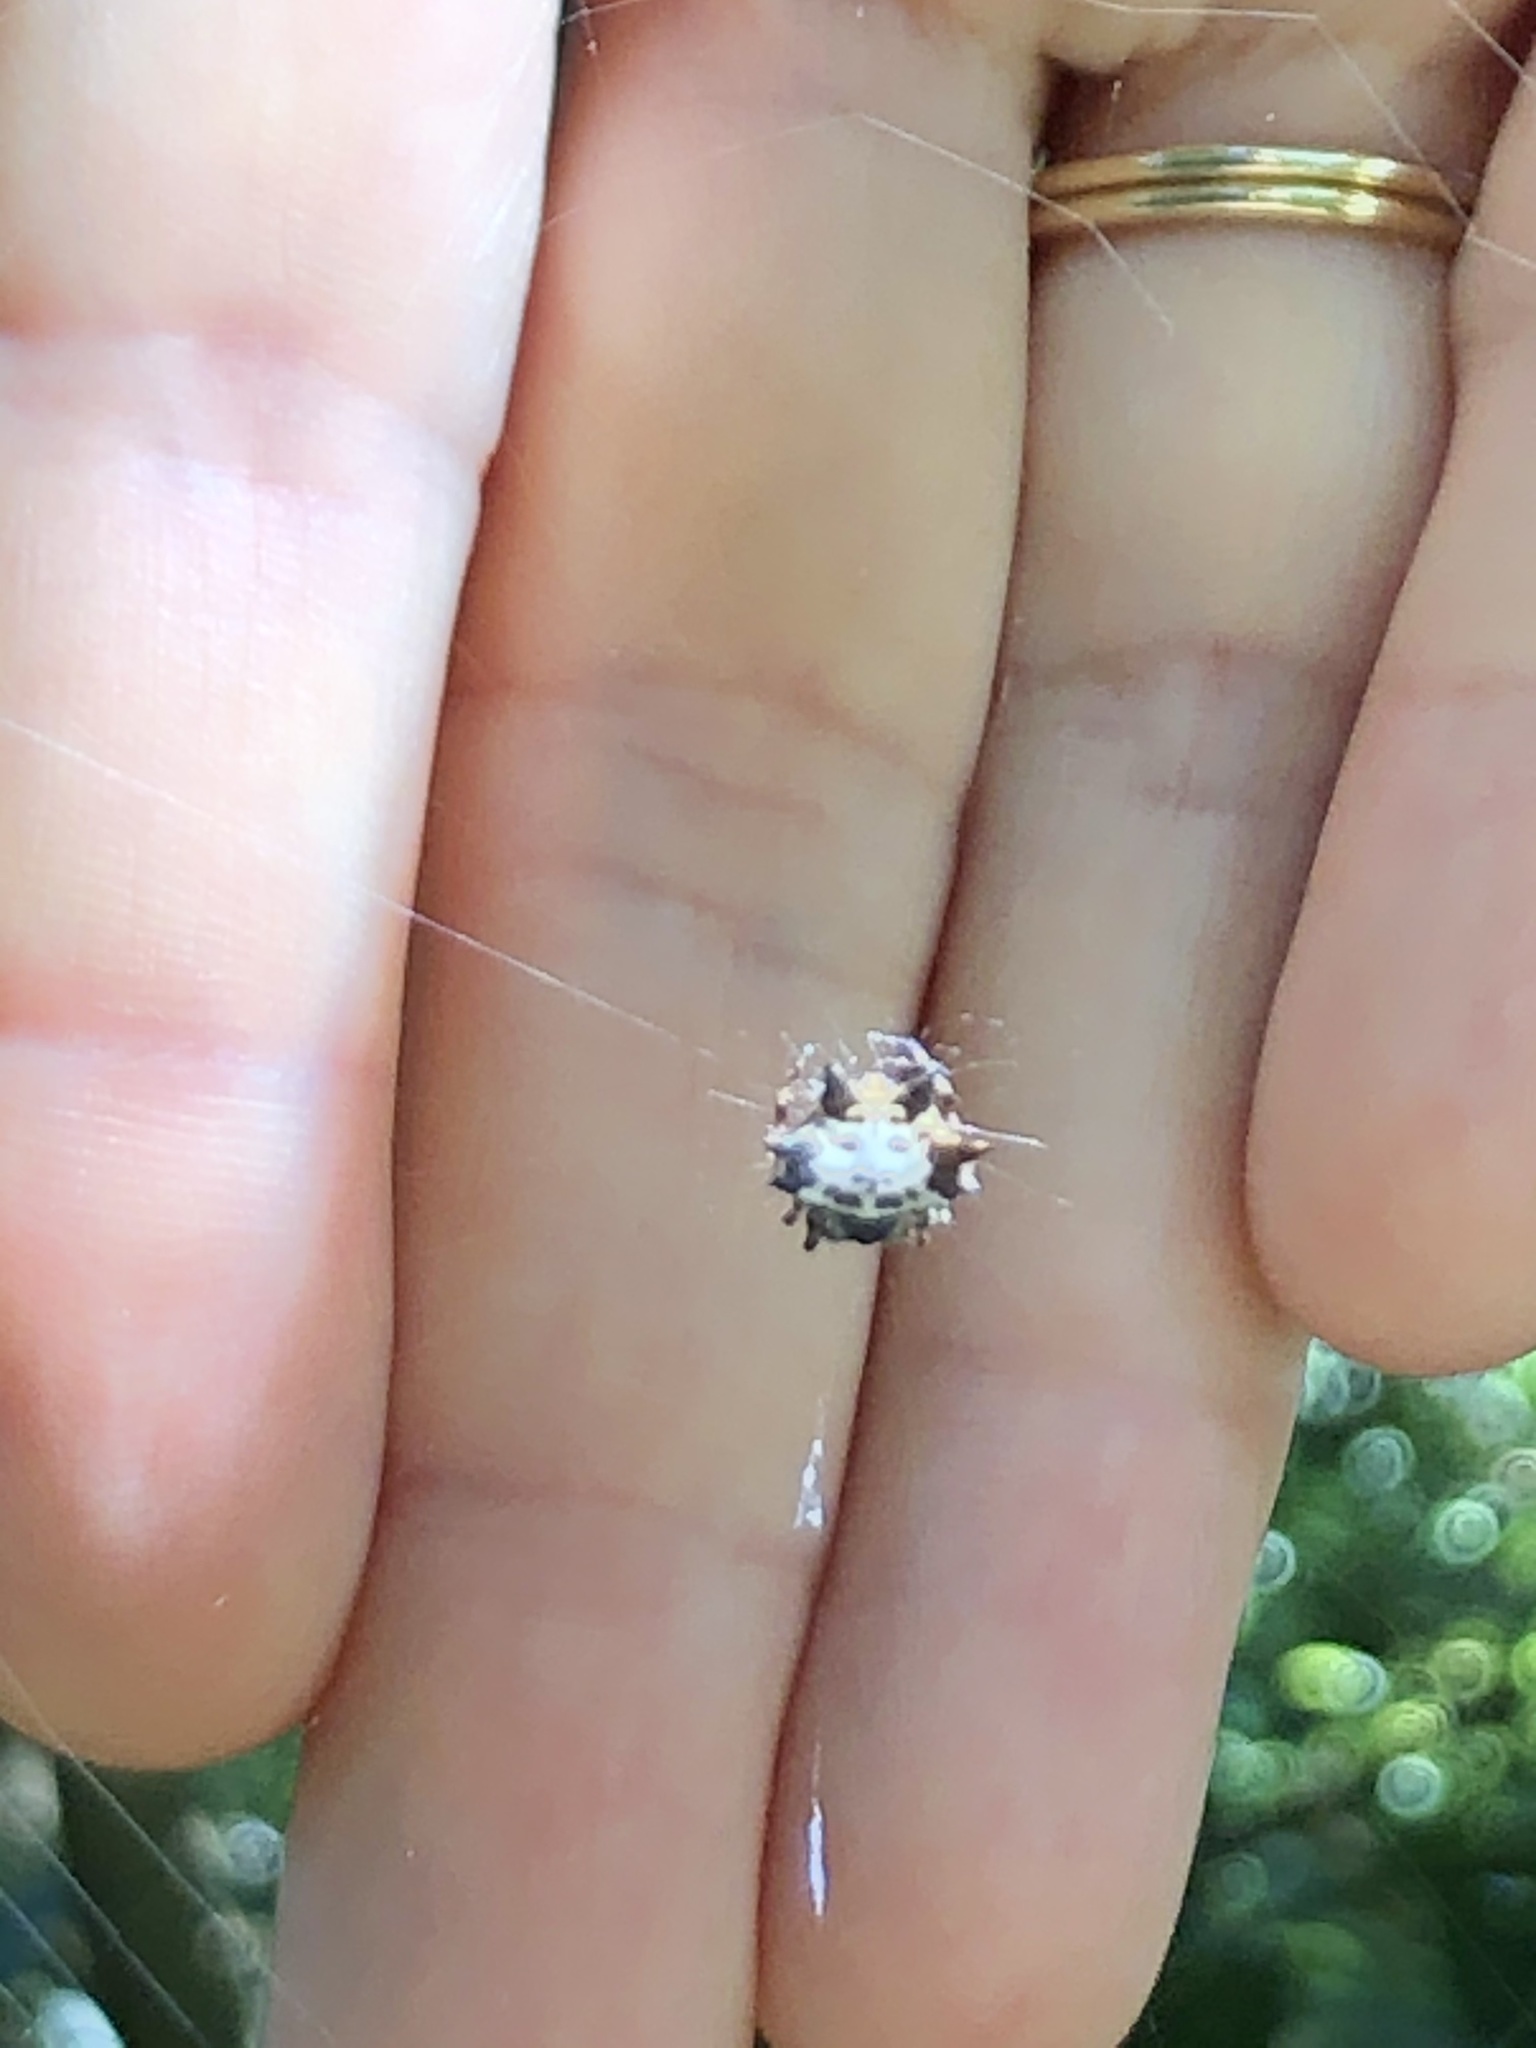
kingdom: Animalia
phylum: Arthropoda
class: Arachnida
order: Araneae
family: Araneidae
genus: Gasteracantha
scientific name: Gasteracantha kuhli
